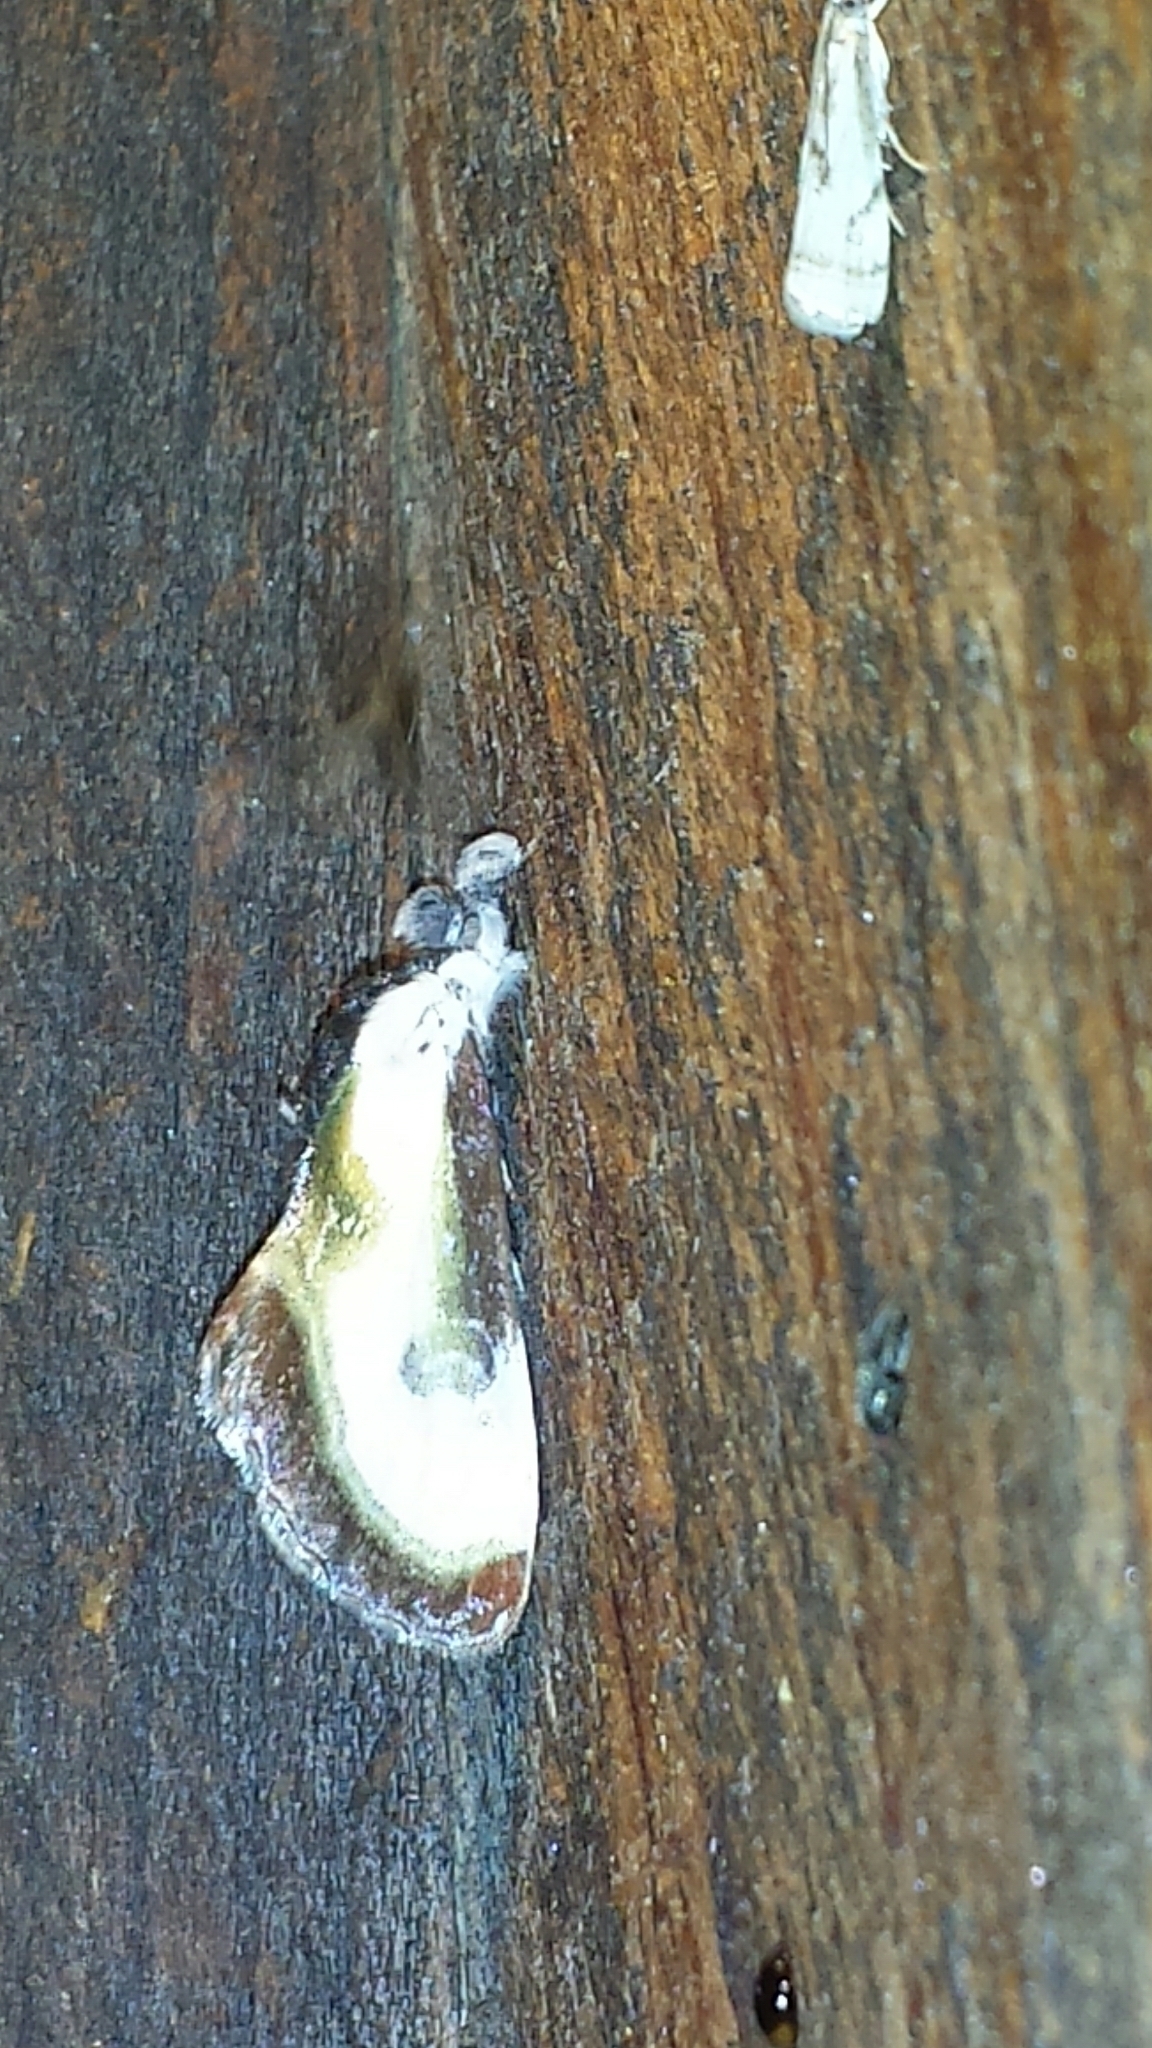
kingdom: Animalia
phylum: Arthropoda
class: Insecta
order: Lepidoptera
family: Noctuidae
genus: Eudryas
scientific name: Eudryas grata
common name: Beautiful wood-nymph
